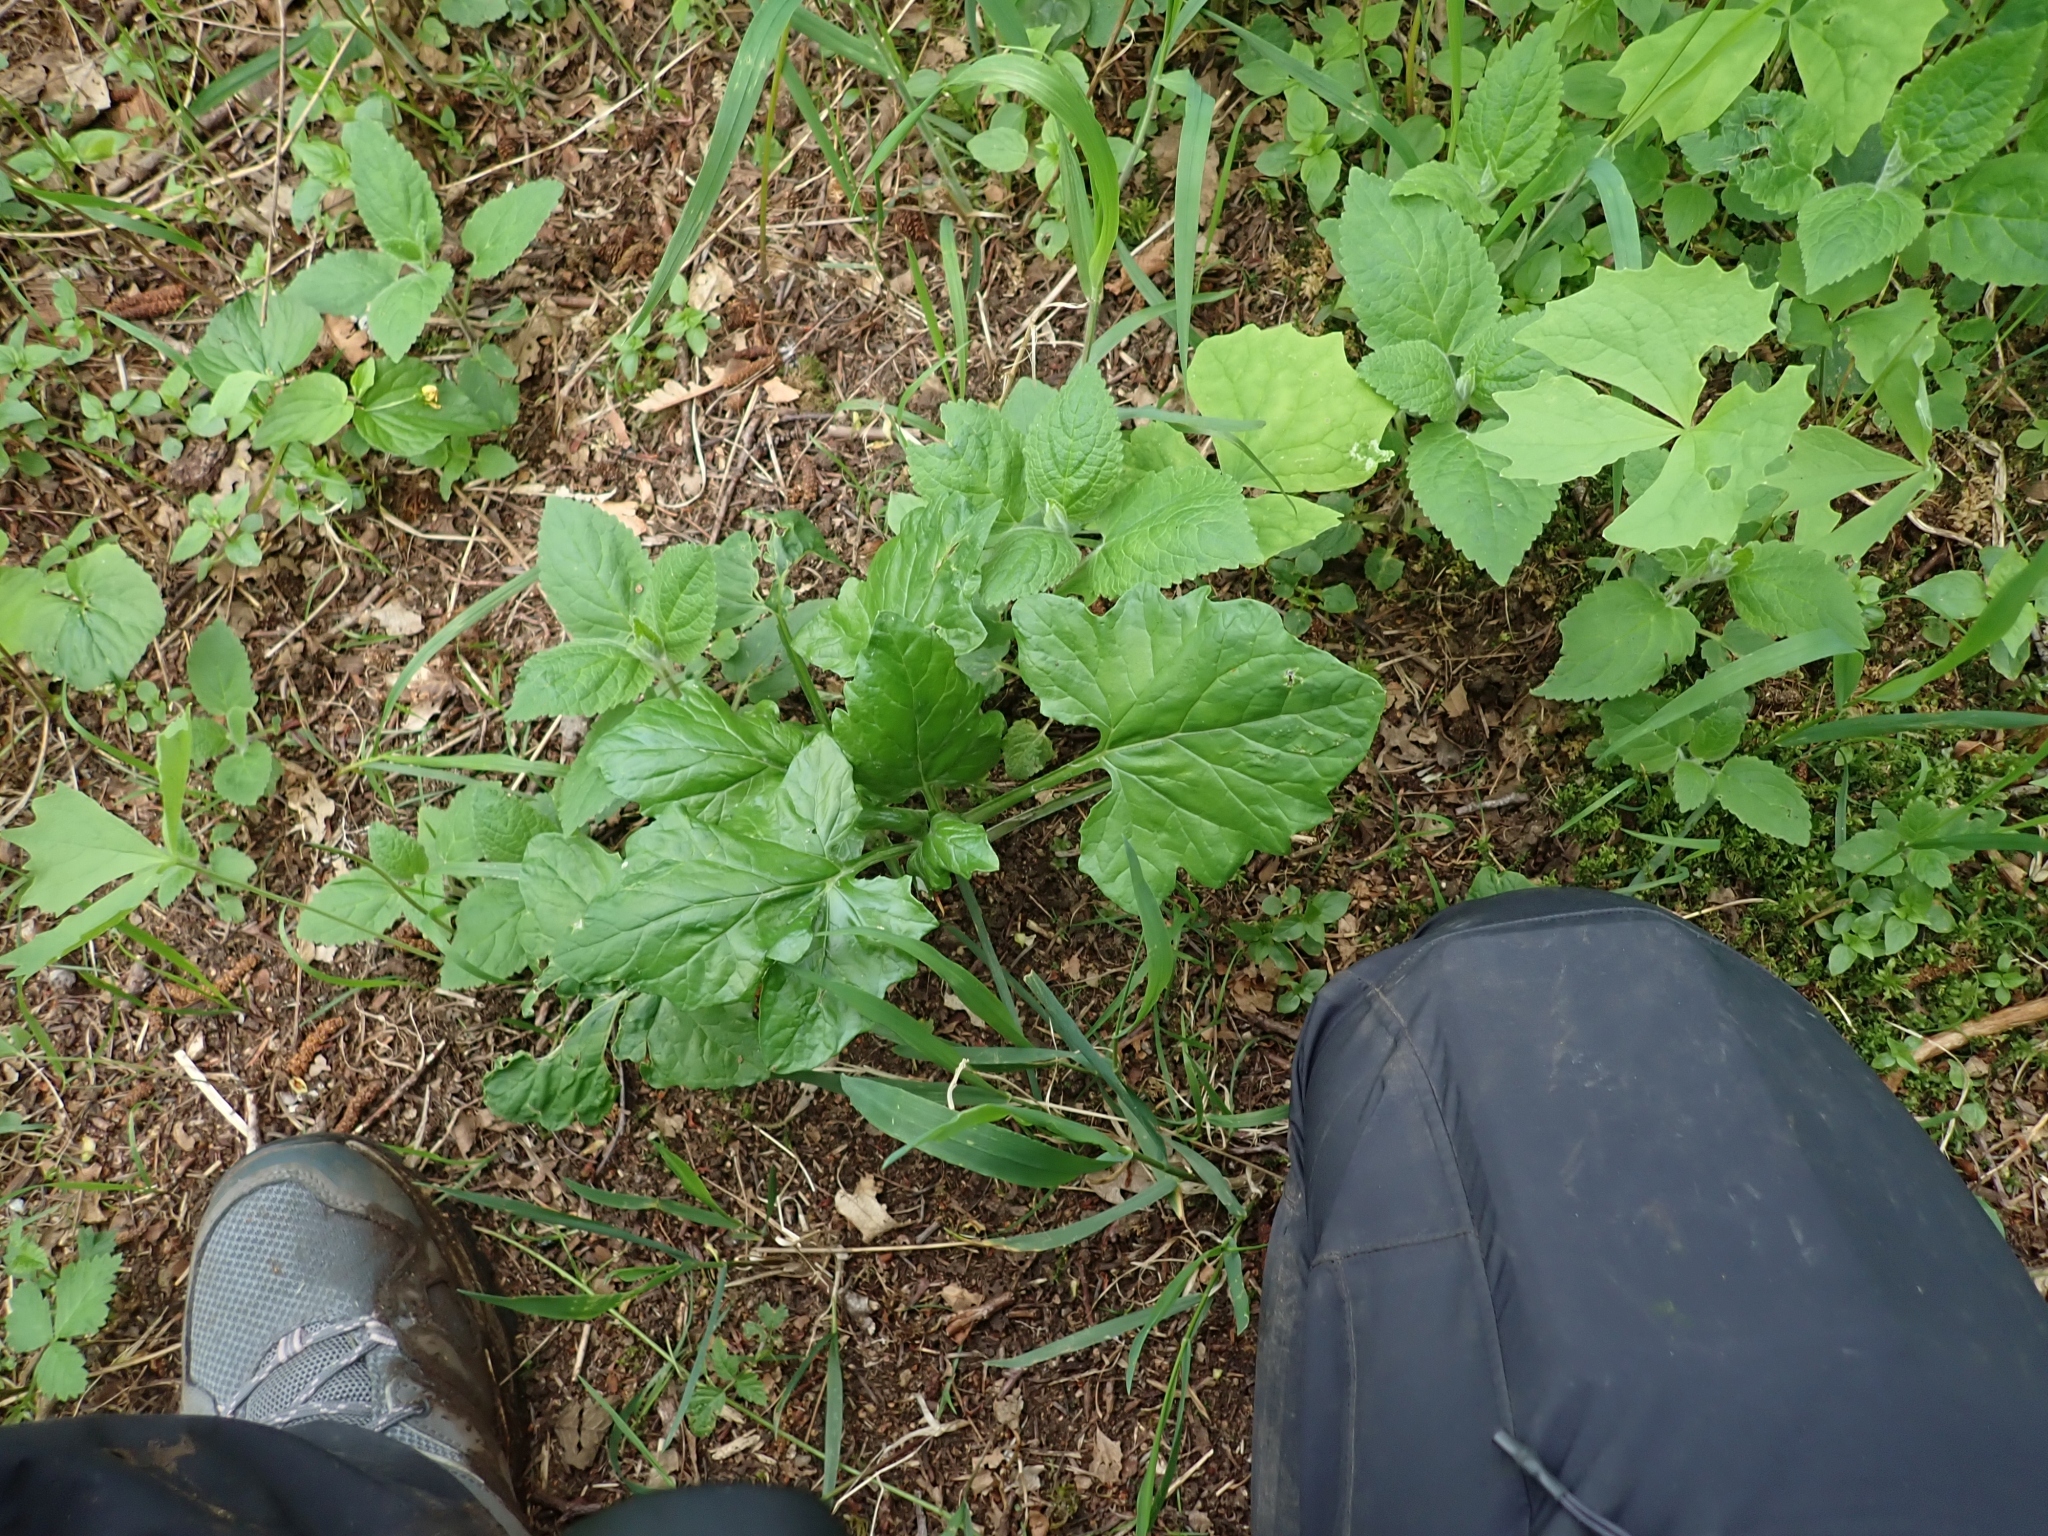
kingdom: Plantae
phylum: Tracheophyta
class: Magnoliopsida
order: Asterales
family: Asteraceae
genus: Adenocaulon
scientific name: Adenocaulon bicolor
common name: Trailplant
